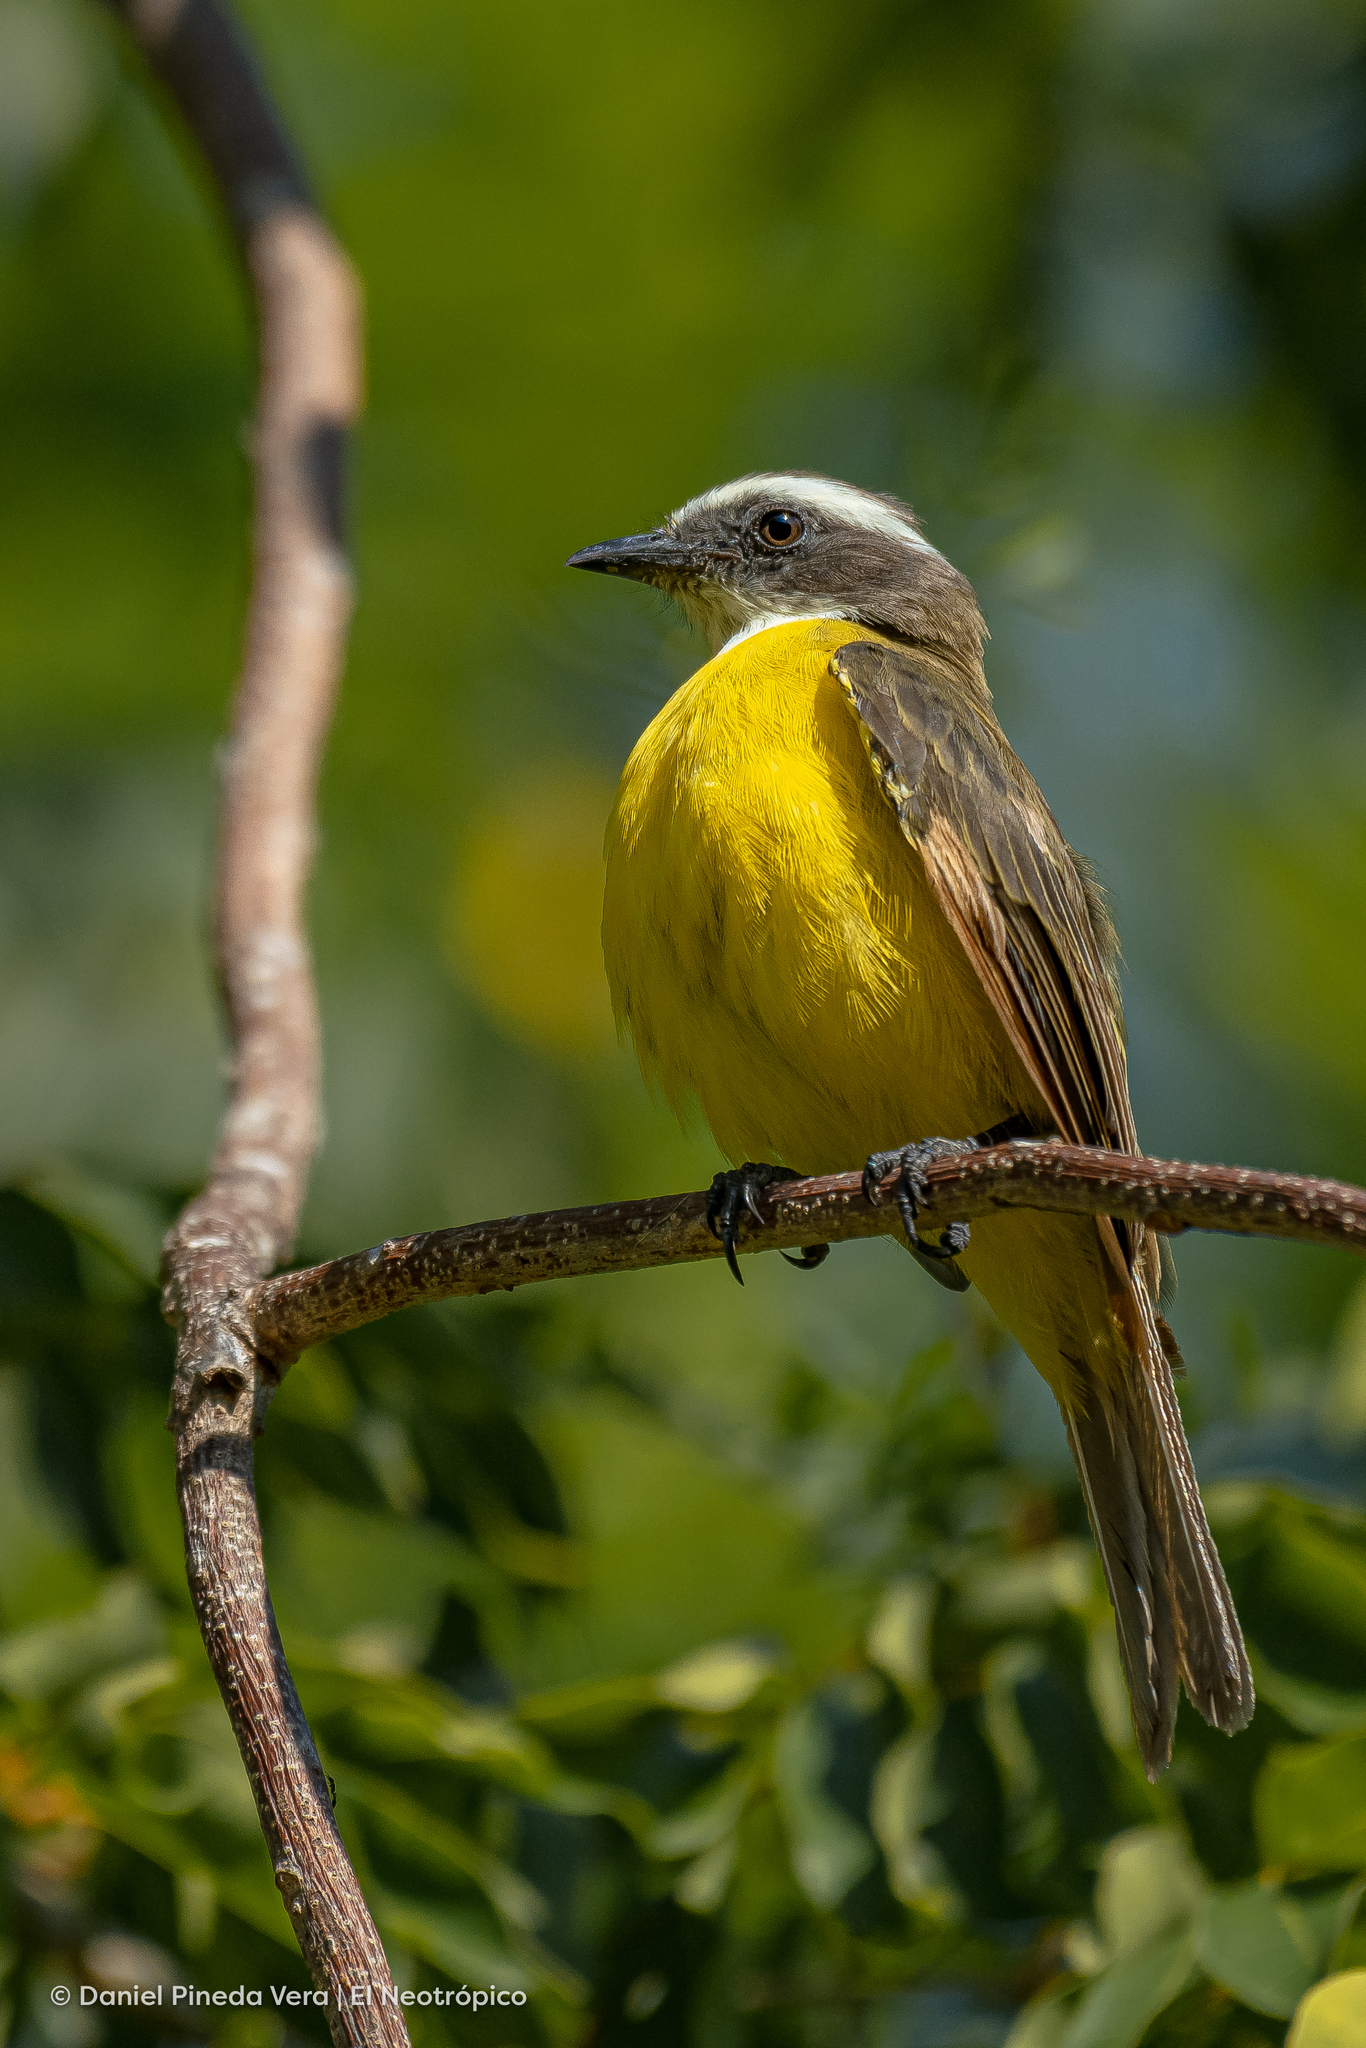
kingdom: Animalia
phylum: Chordata
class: Aves
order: Passeriformes
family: Tyrannidae
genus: Myiozetetes
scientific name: Myiozetetes similis
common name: Social flycatcher
